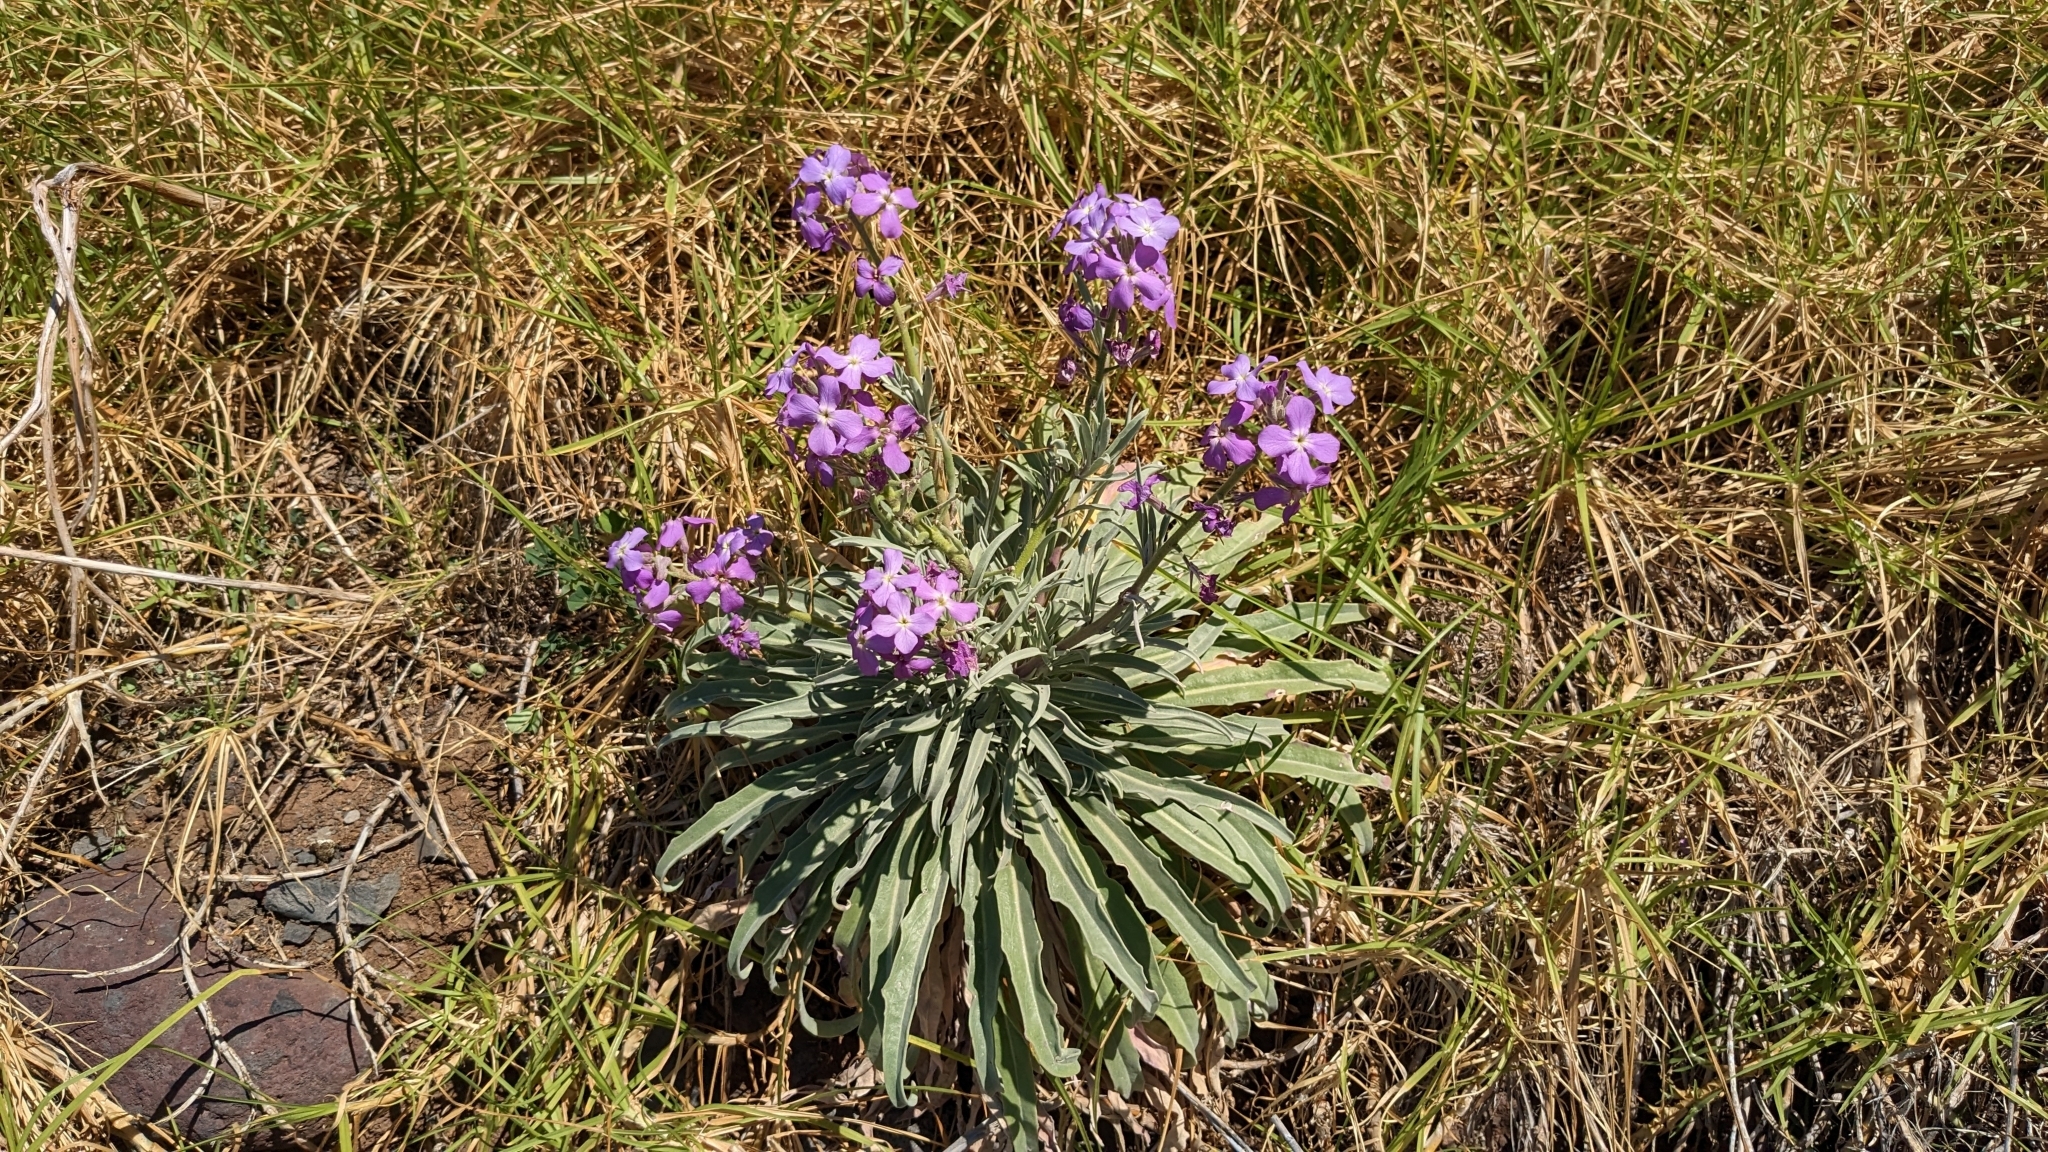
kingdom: Plantae
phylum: Tracheophyta
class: Magnoliopsida
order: Brassicales
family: Brassicaceae
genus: Matthiola
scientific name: Matthiola maderensis
